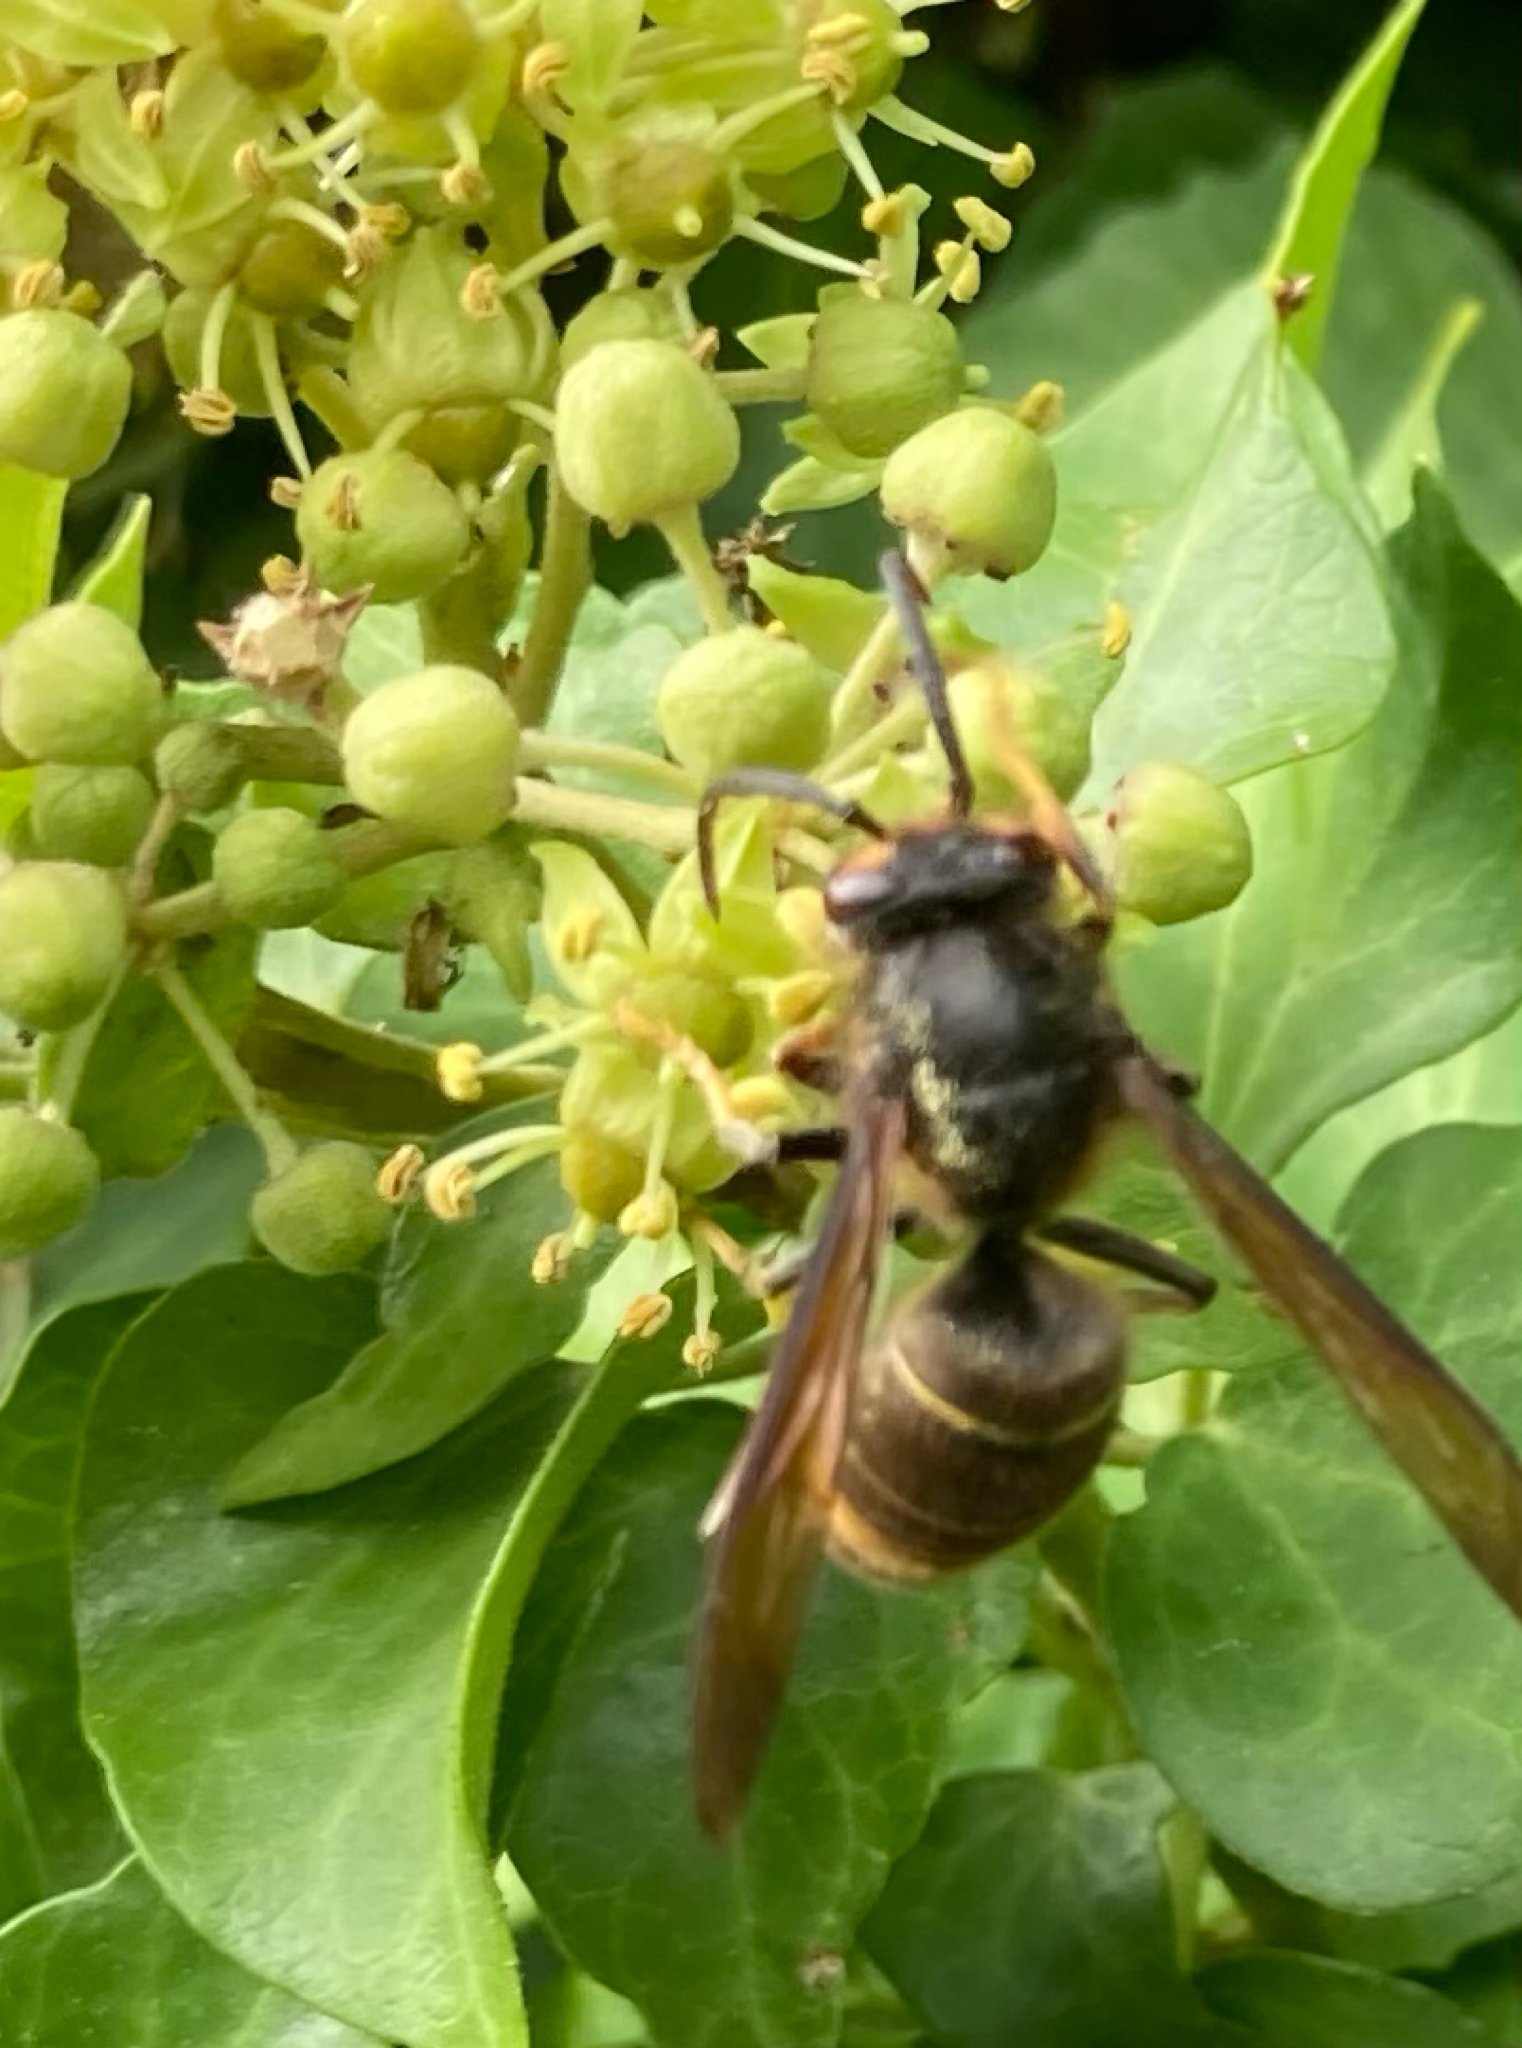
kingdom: Animalia
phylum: Arthropoda
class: Insecta
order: Hymenoptera
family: Vespidae
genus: Vespa
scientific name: Vespa velutina
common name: Asian hornet
